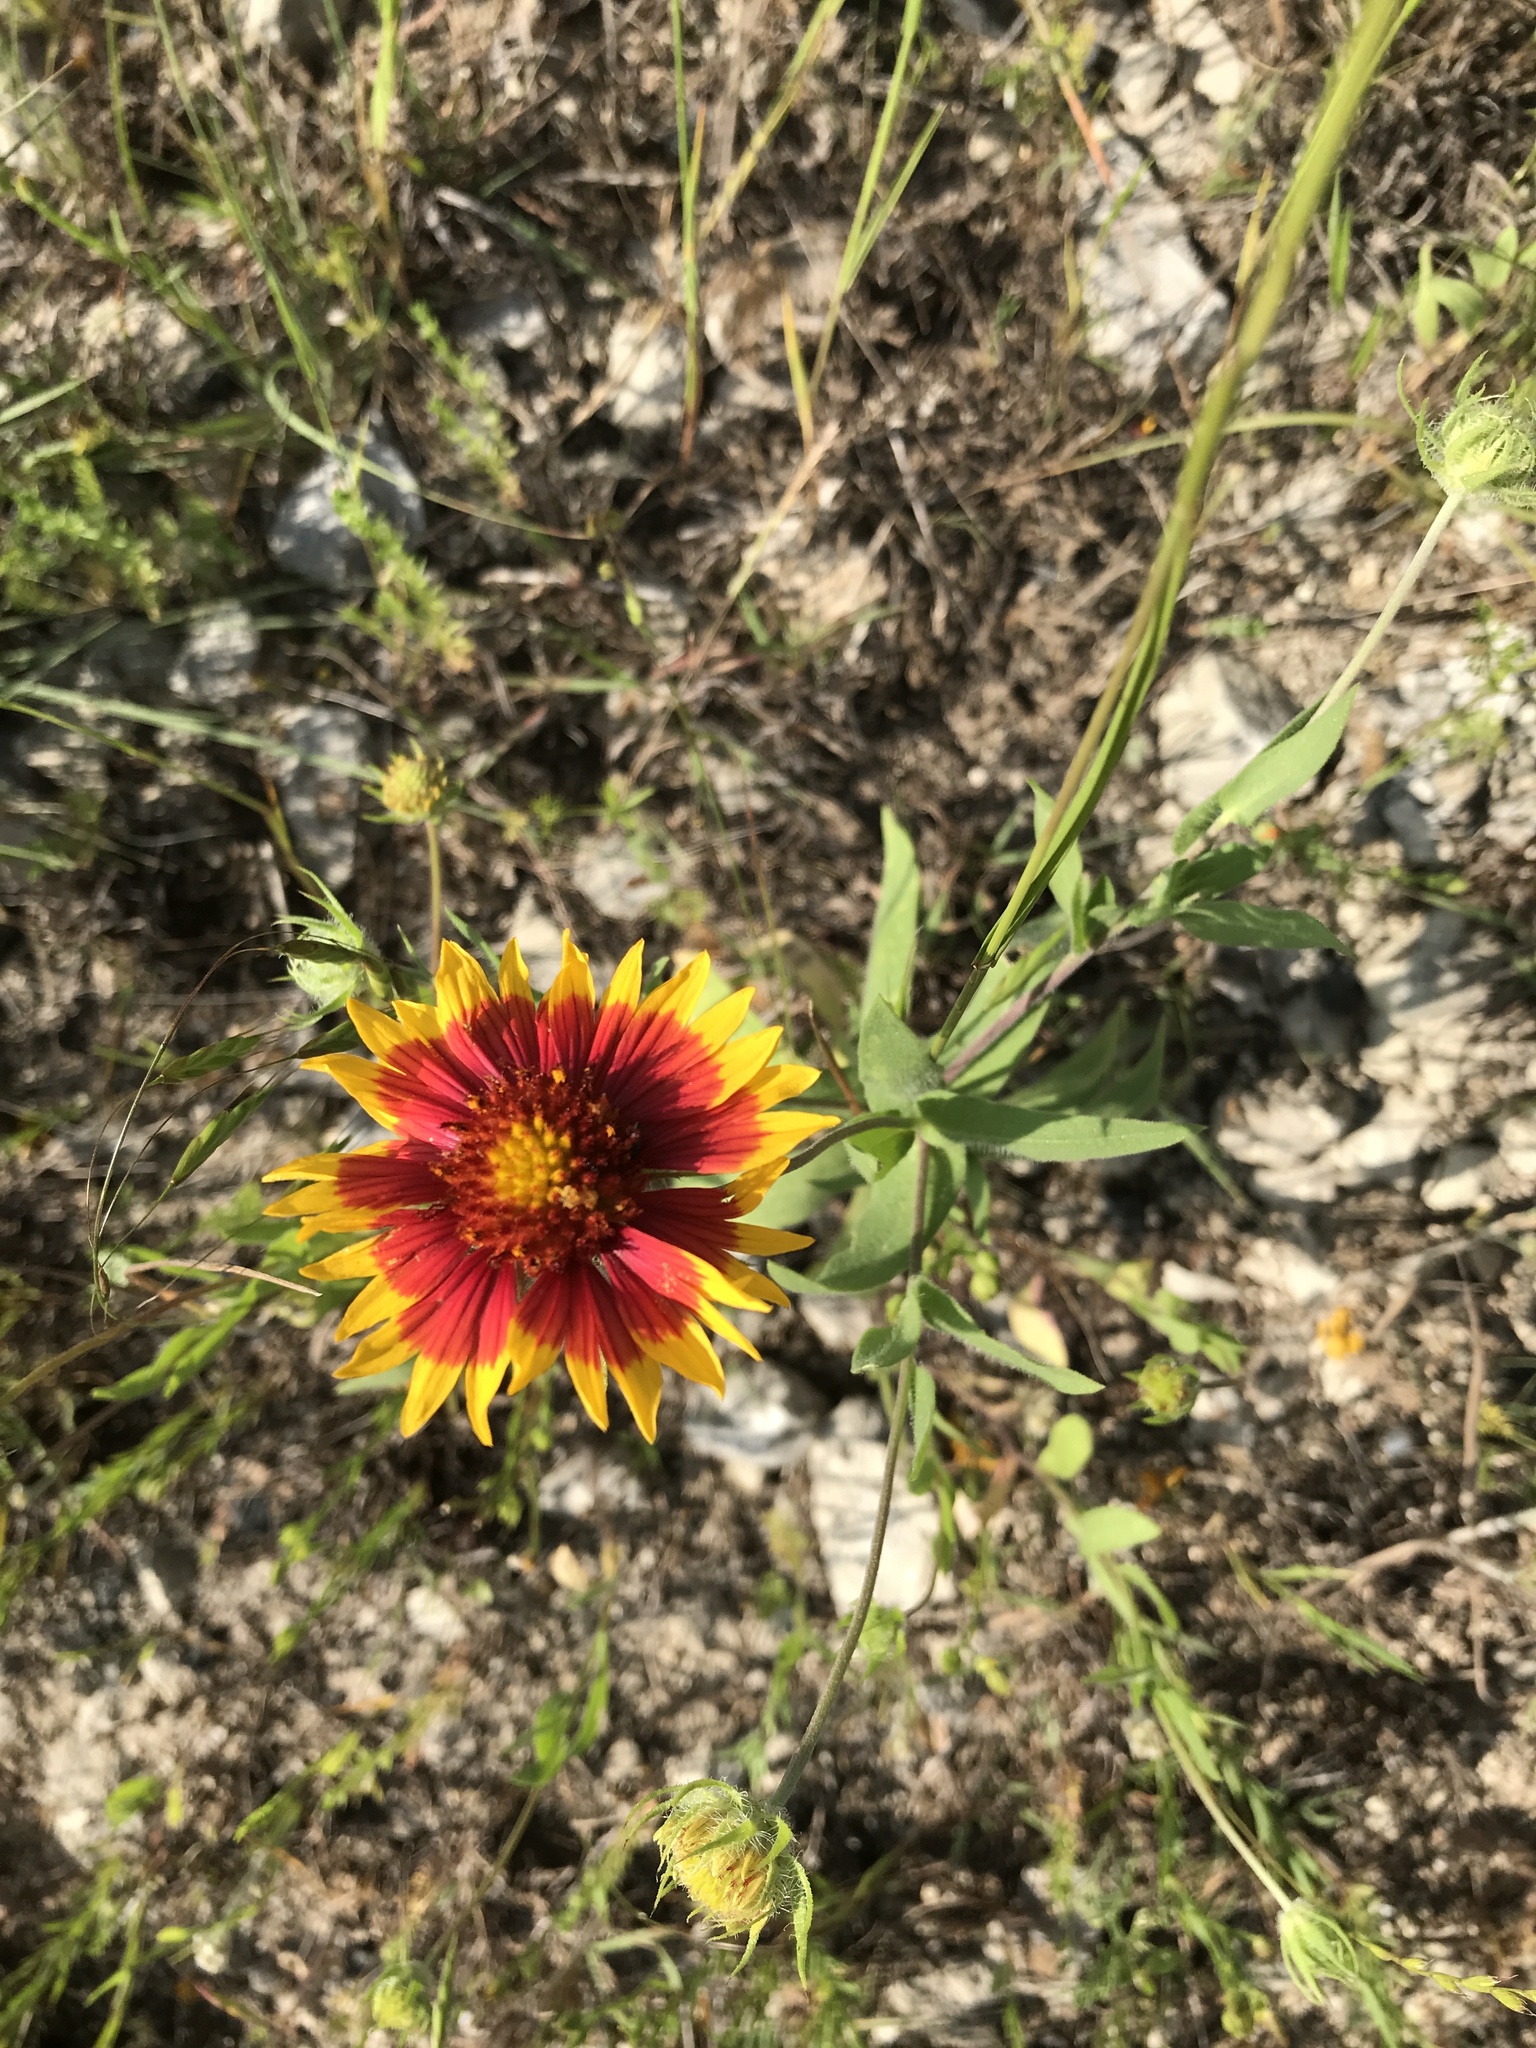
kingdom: Plantae
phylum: Tracheophyta
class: Magnoliopsida
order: Asterales
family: Asteraceae
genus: Gaillardia
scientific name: Gaillardia pulchella
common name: Firewheel
